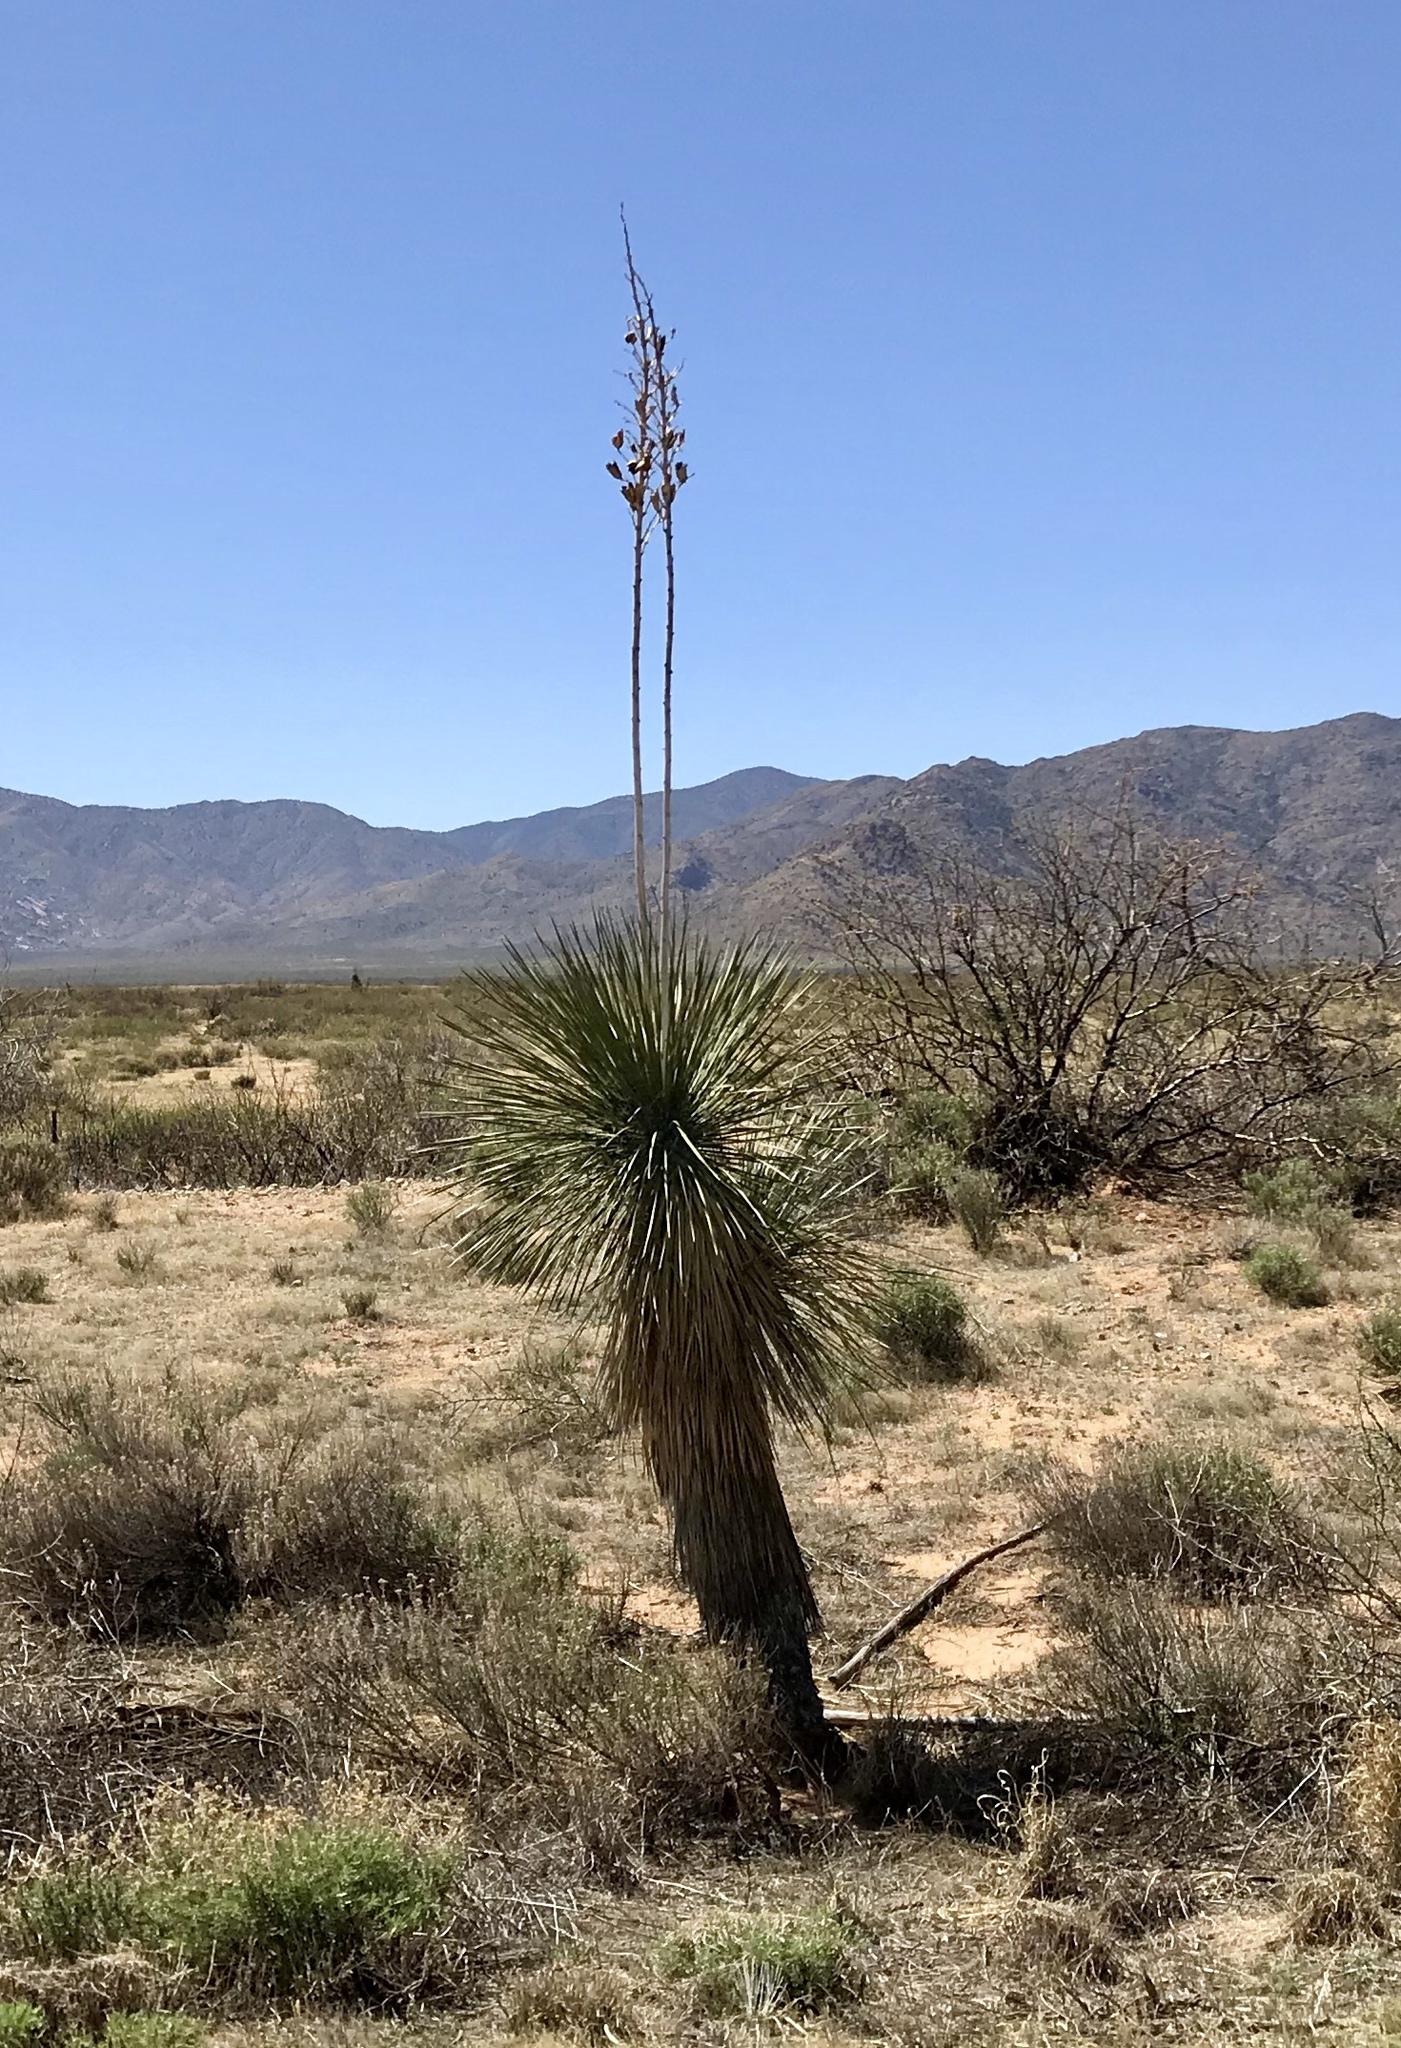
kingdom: Plantae
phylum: Tracheophyta
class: Liliopsida
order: Asparagales
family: Asparagaceae
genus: Yucca
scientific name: Yucca elata
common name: Palmella
